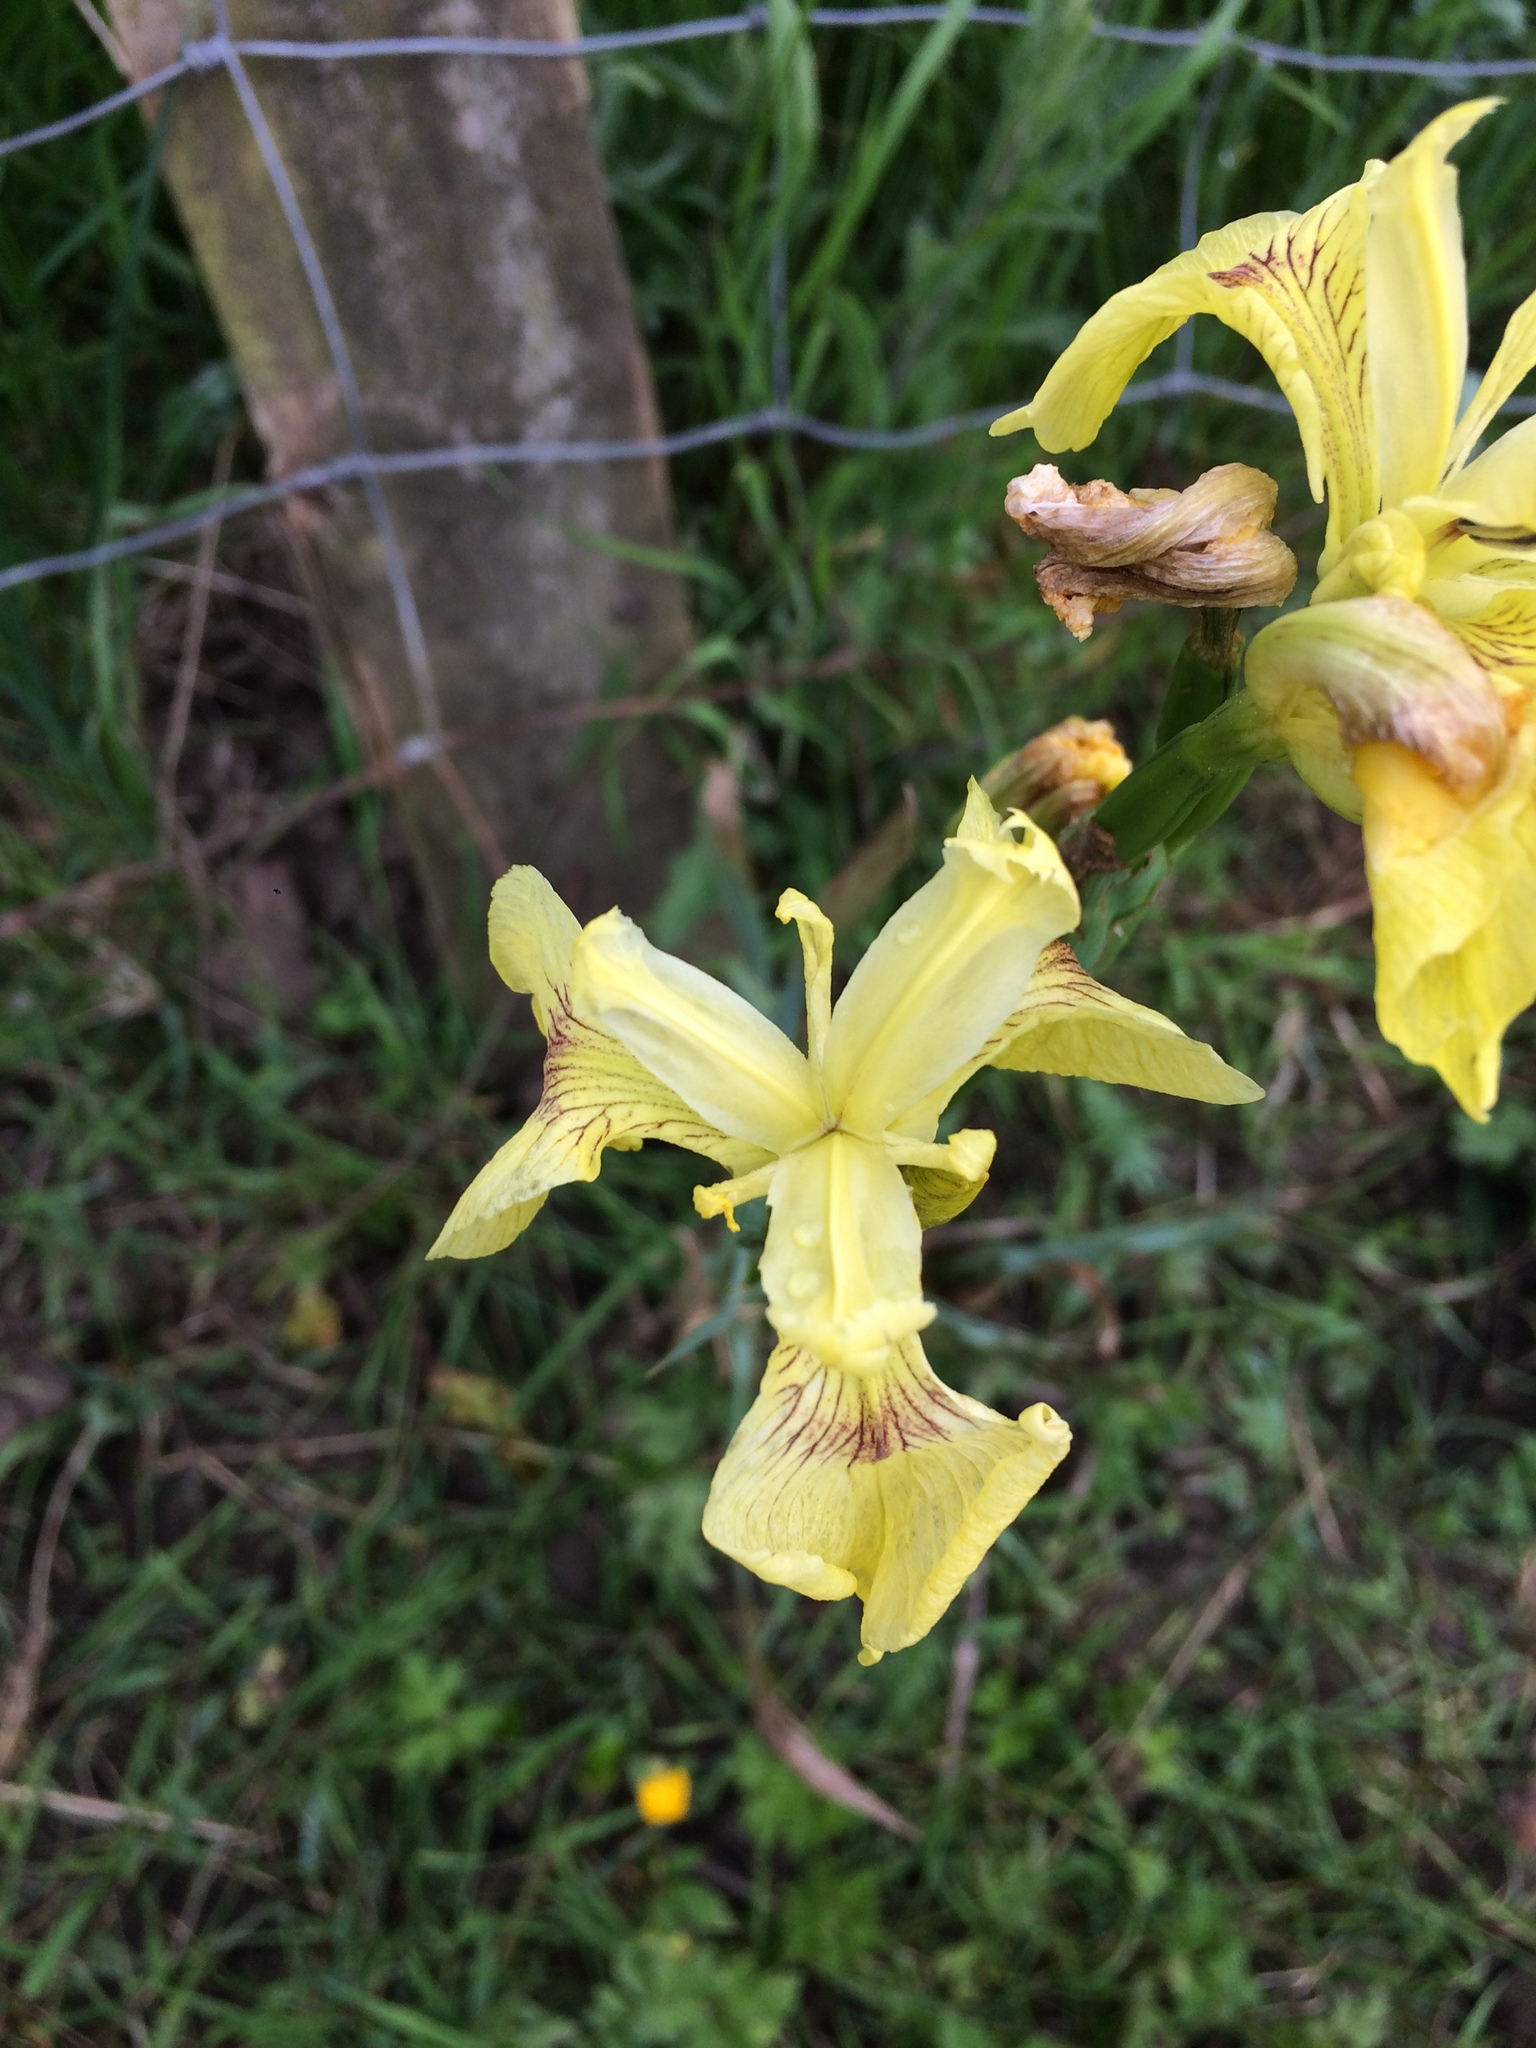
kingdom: Plantae
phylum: Tracheophyta
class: Liliopsida
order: Asparagales
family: Iridaceae
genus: Iris
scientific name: Iris pseudacorus
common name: Yellow flag
